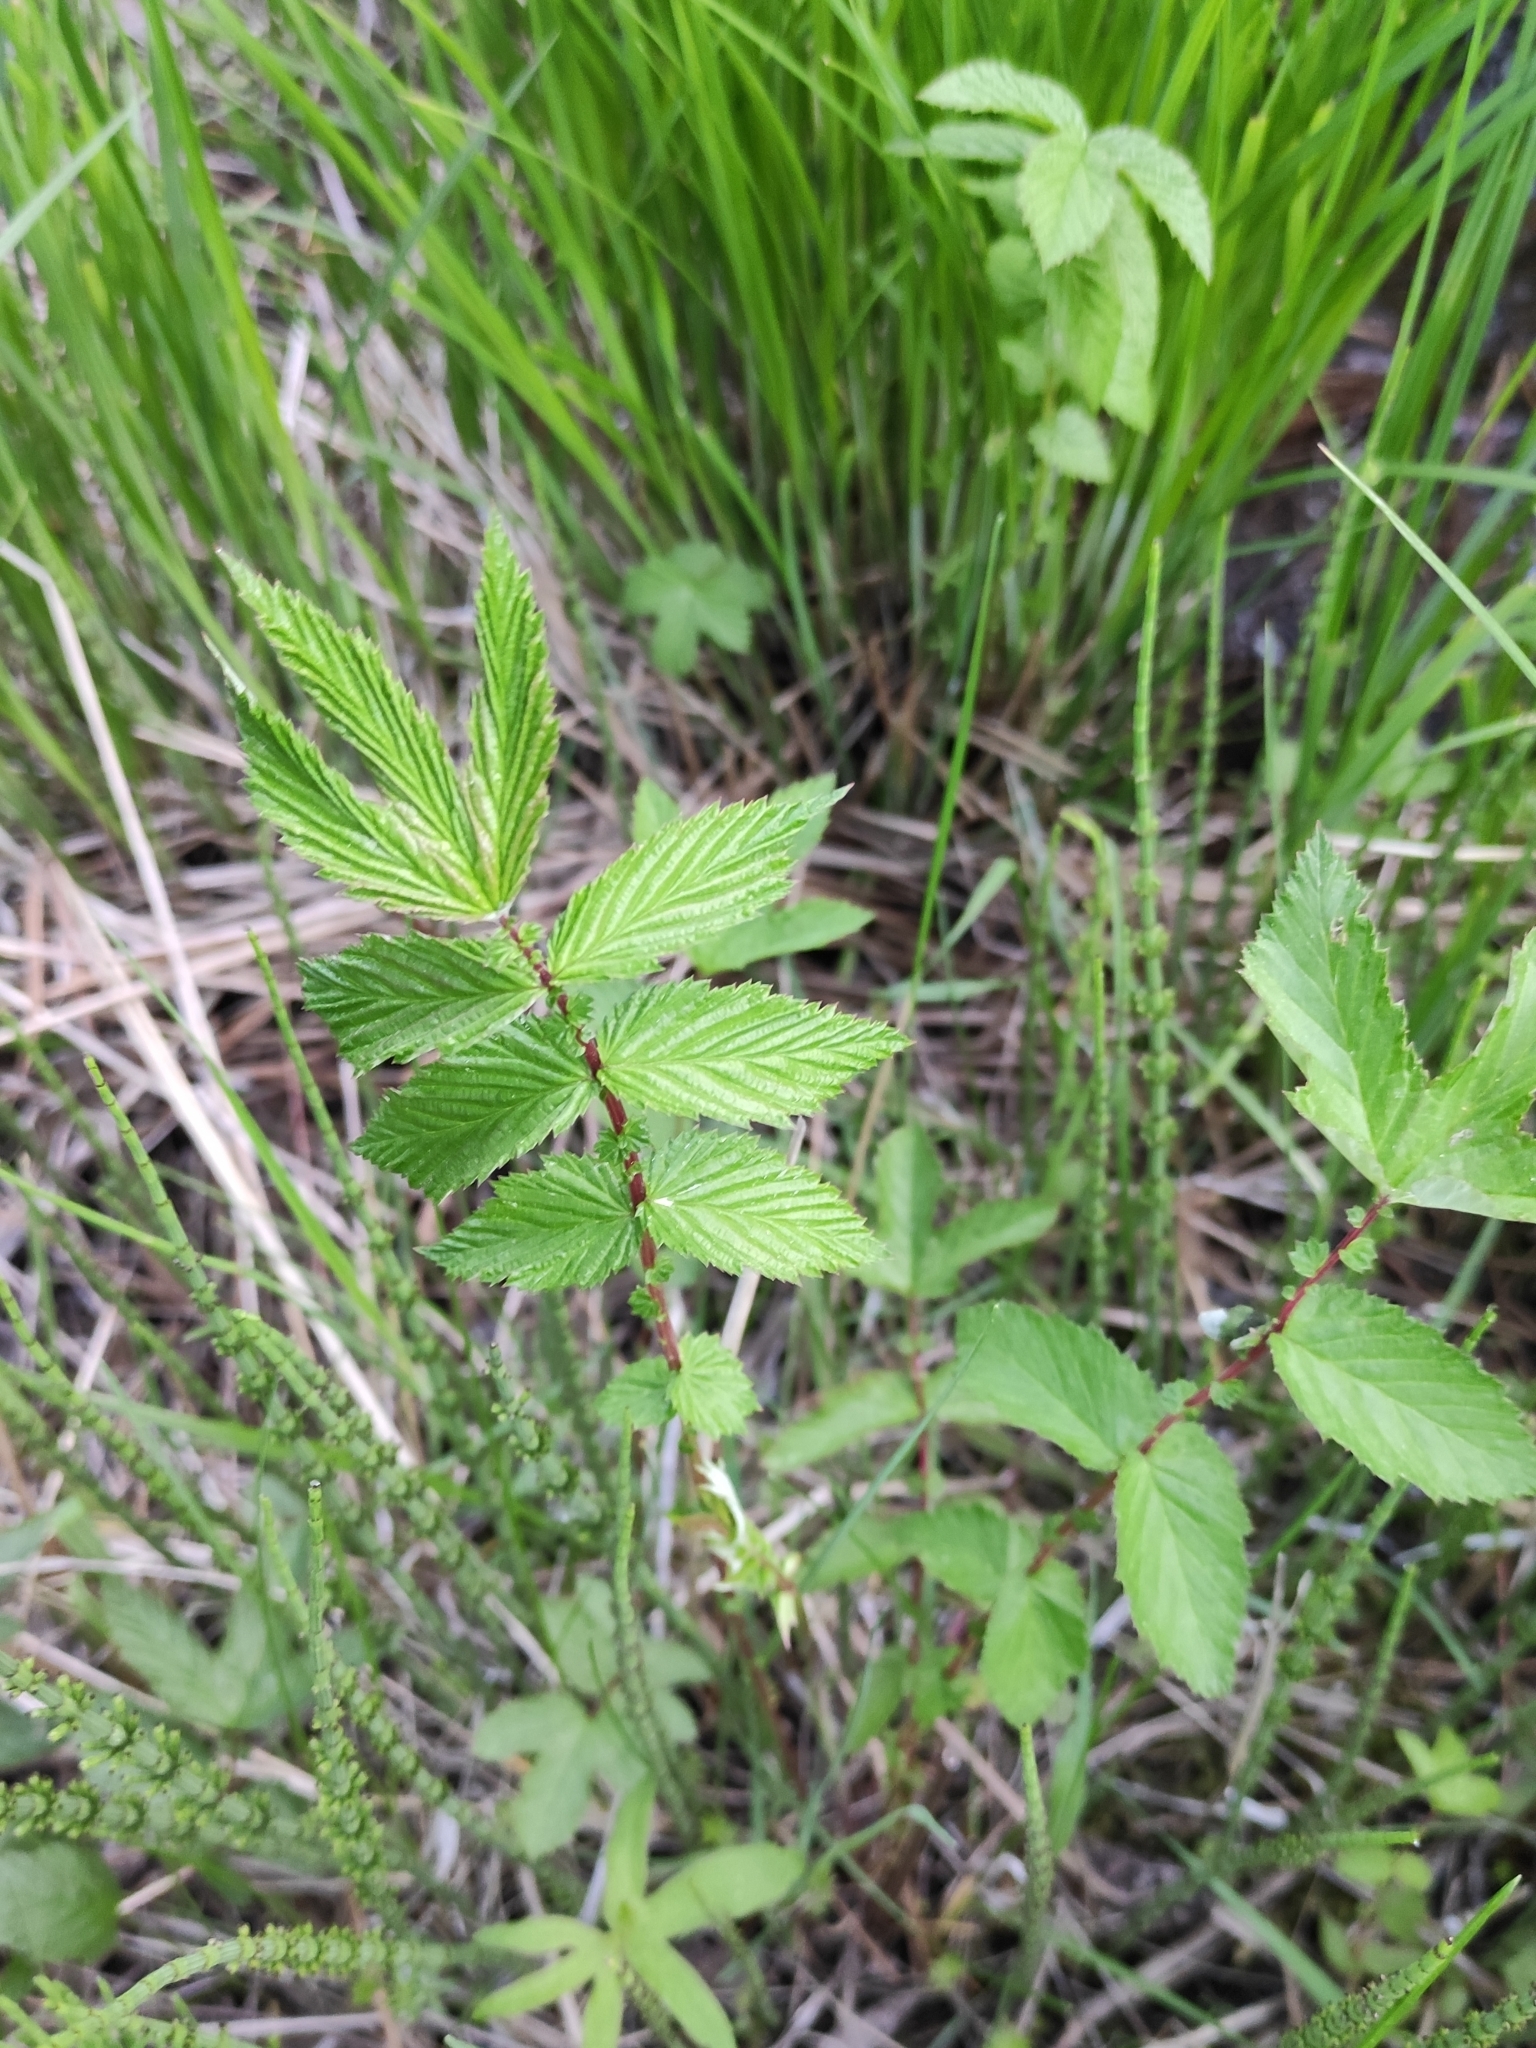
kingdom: Plantae
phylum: Tracheophyta
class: Magnoliopsida
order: Rosales
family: Rosaceae
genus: Filipendula
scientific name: Filipendula ulmaria
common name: Meadowsweet
